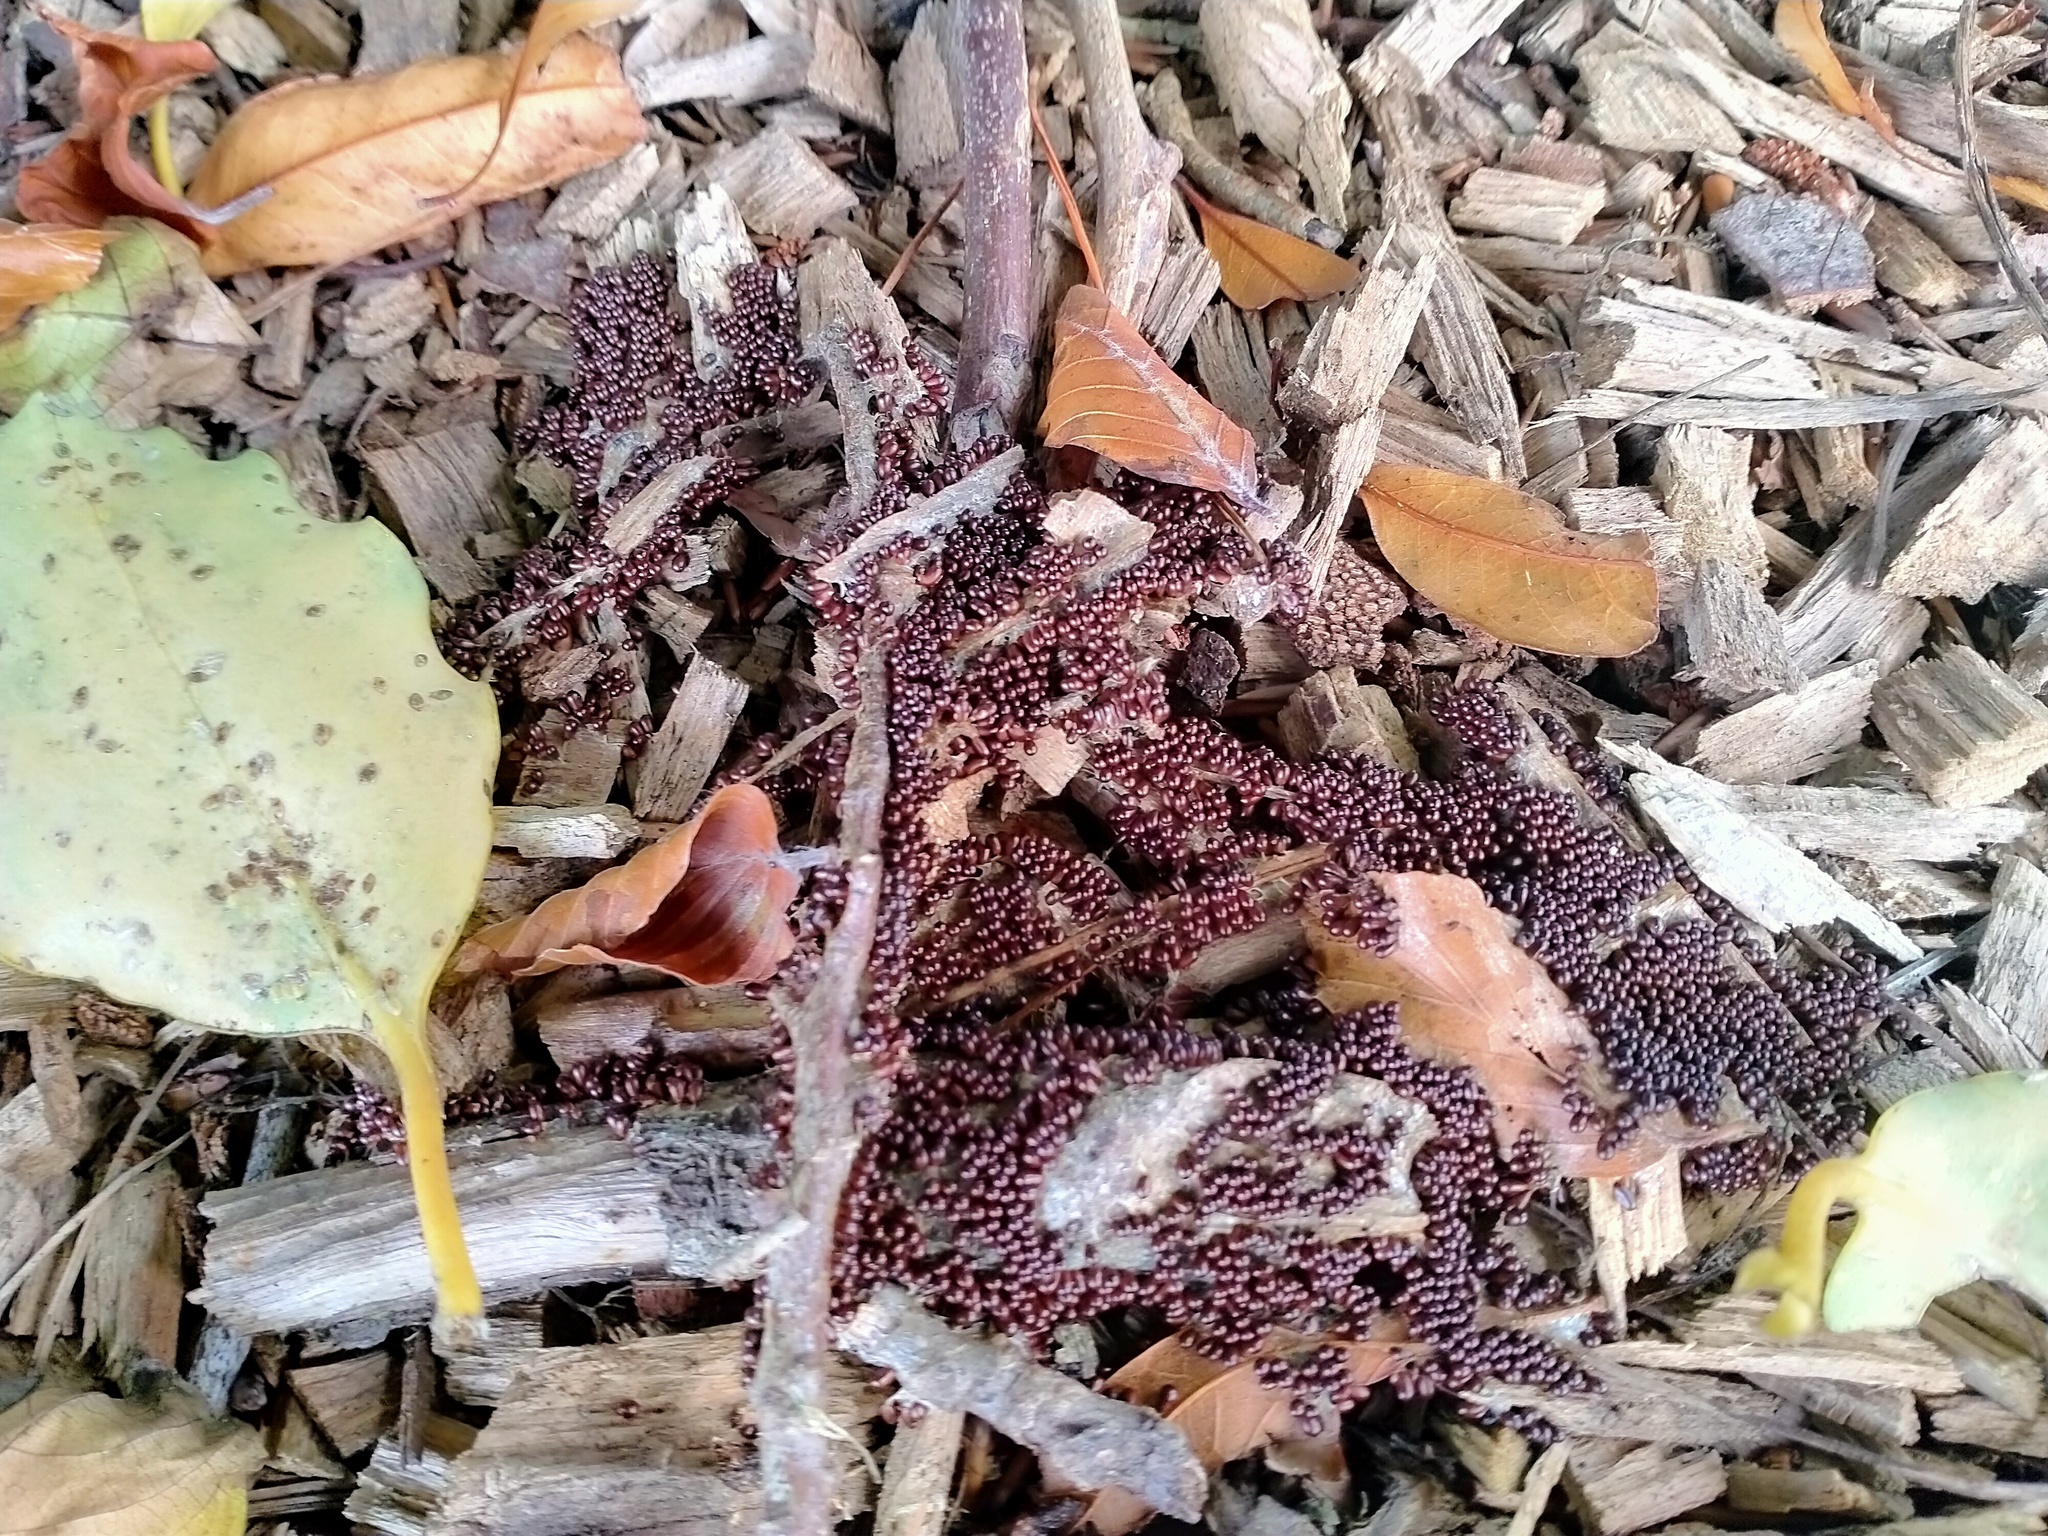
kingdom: Protozoa
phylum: Mycetozoa
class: Myxomycetes
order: Physarales
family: Physaraceae
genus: Leocarpus
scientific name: Leocarpus fragilis
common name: Insect-egg slime
